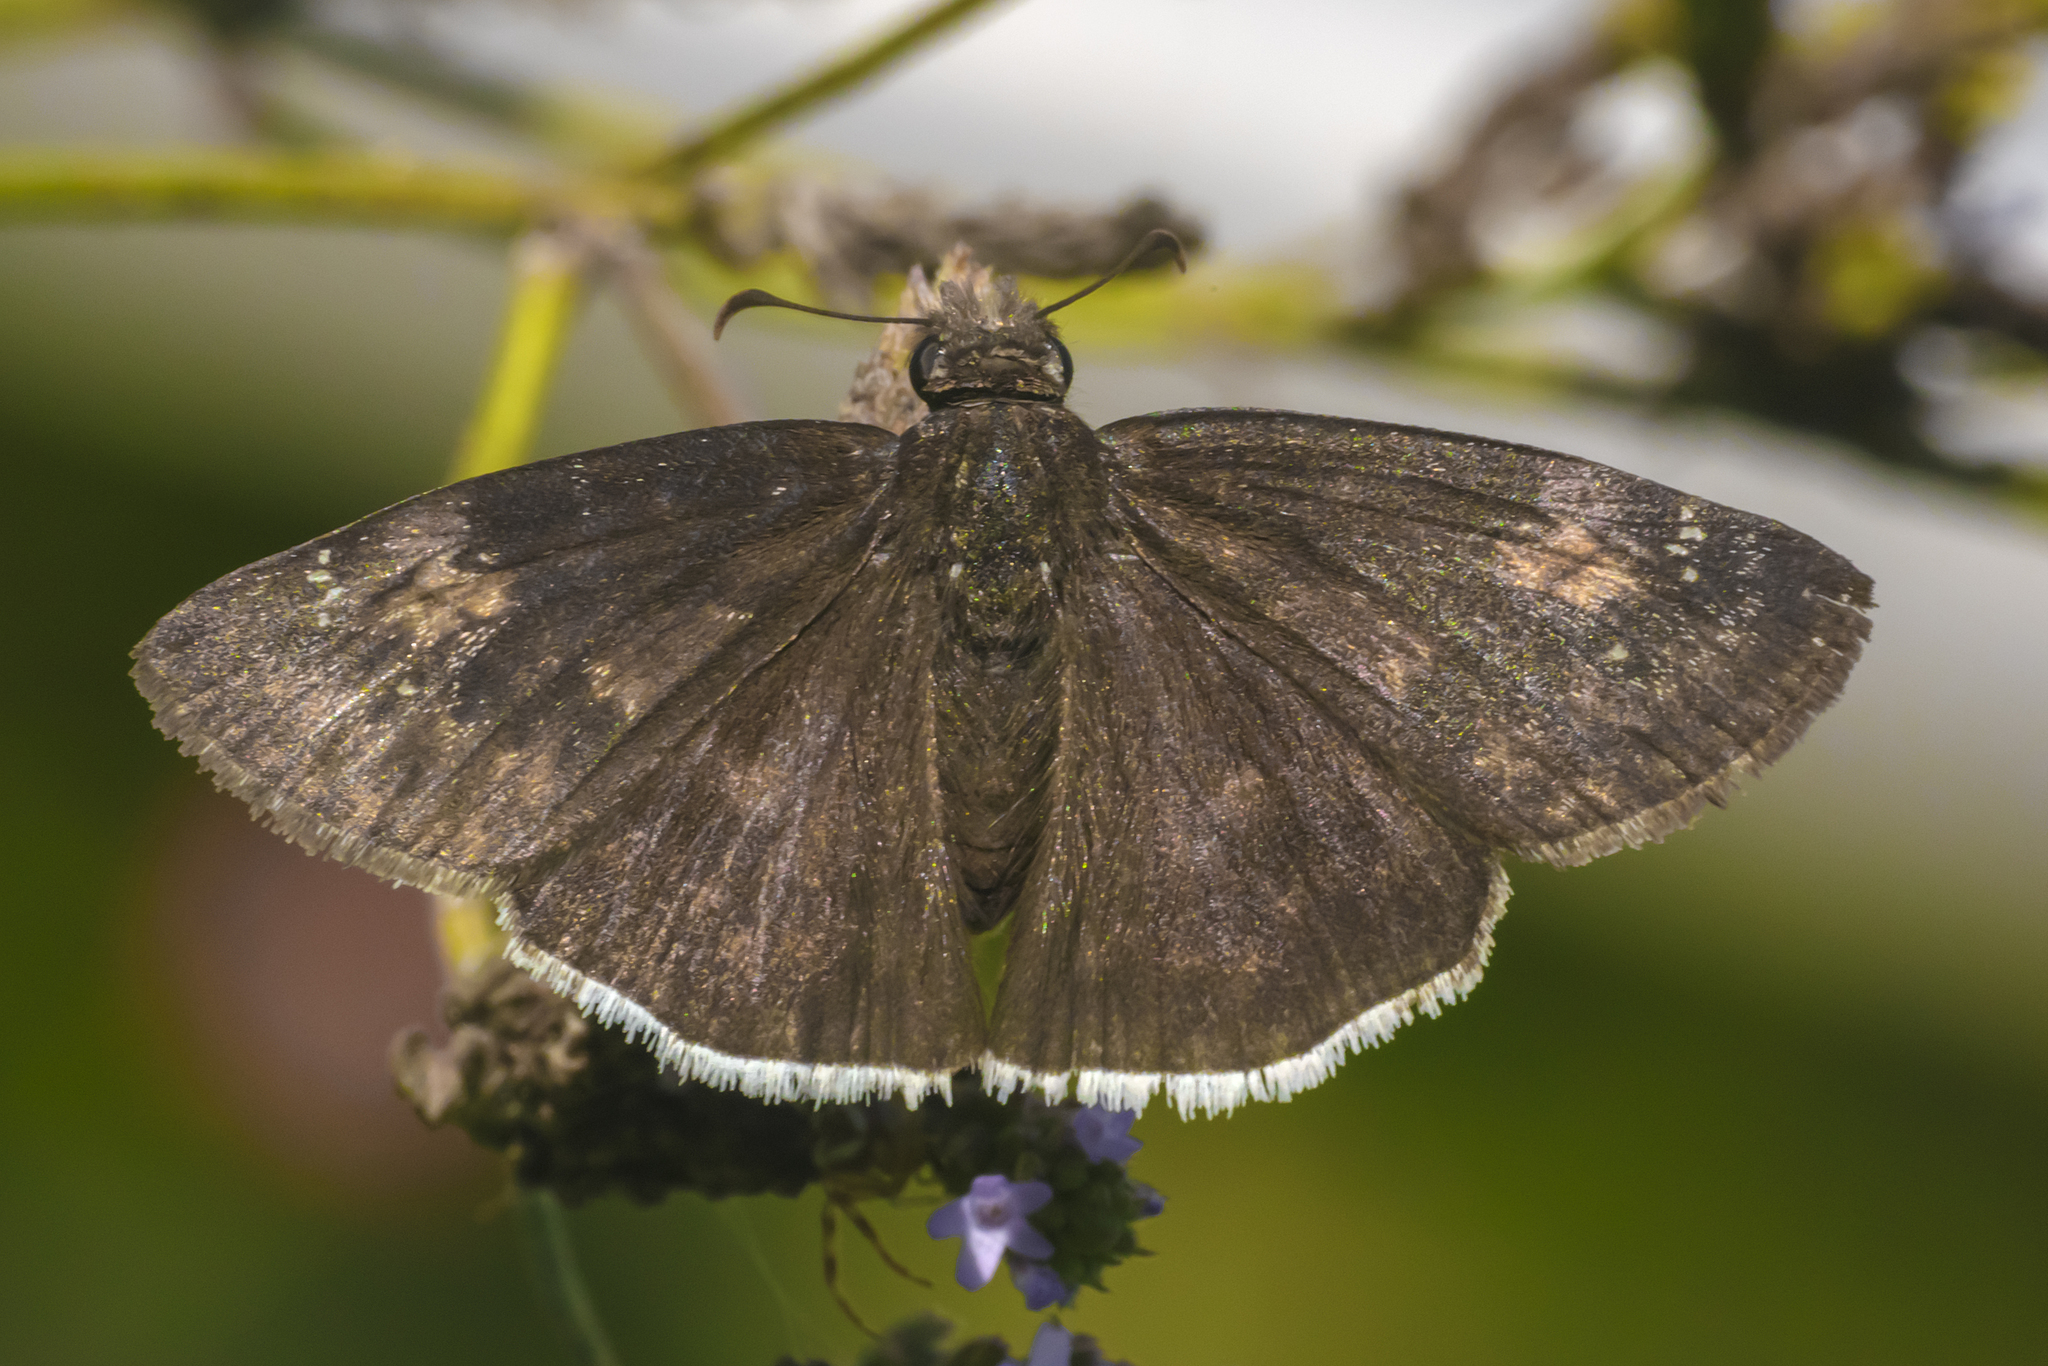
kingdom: Animalia
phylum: Arthropoda
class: Insecta
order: Lepidoptera
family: Hesperiidae
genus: Erynnis
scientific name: Erynnis funeralis
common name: Funereal duskywing
